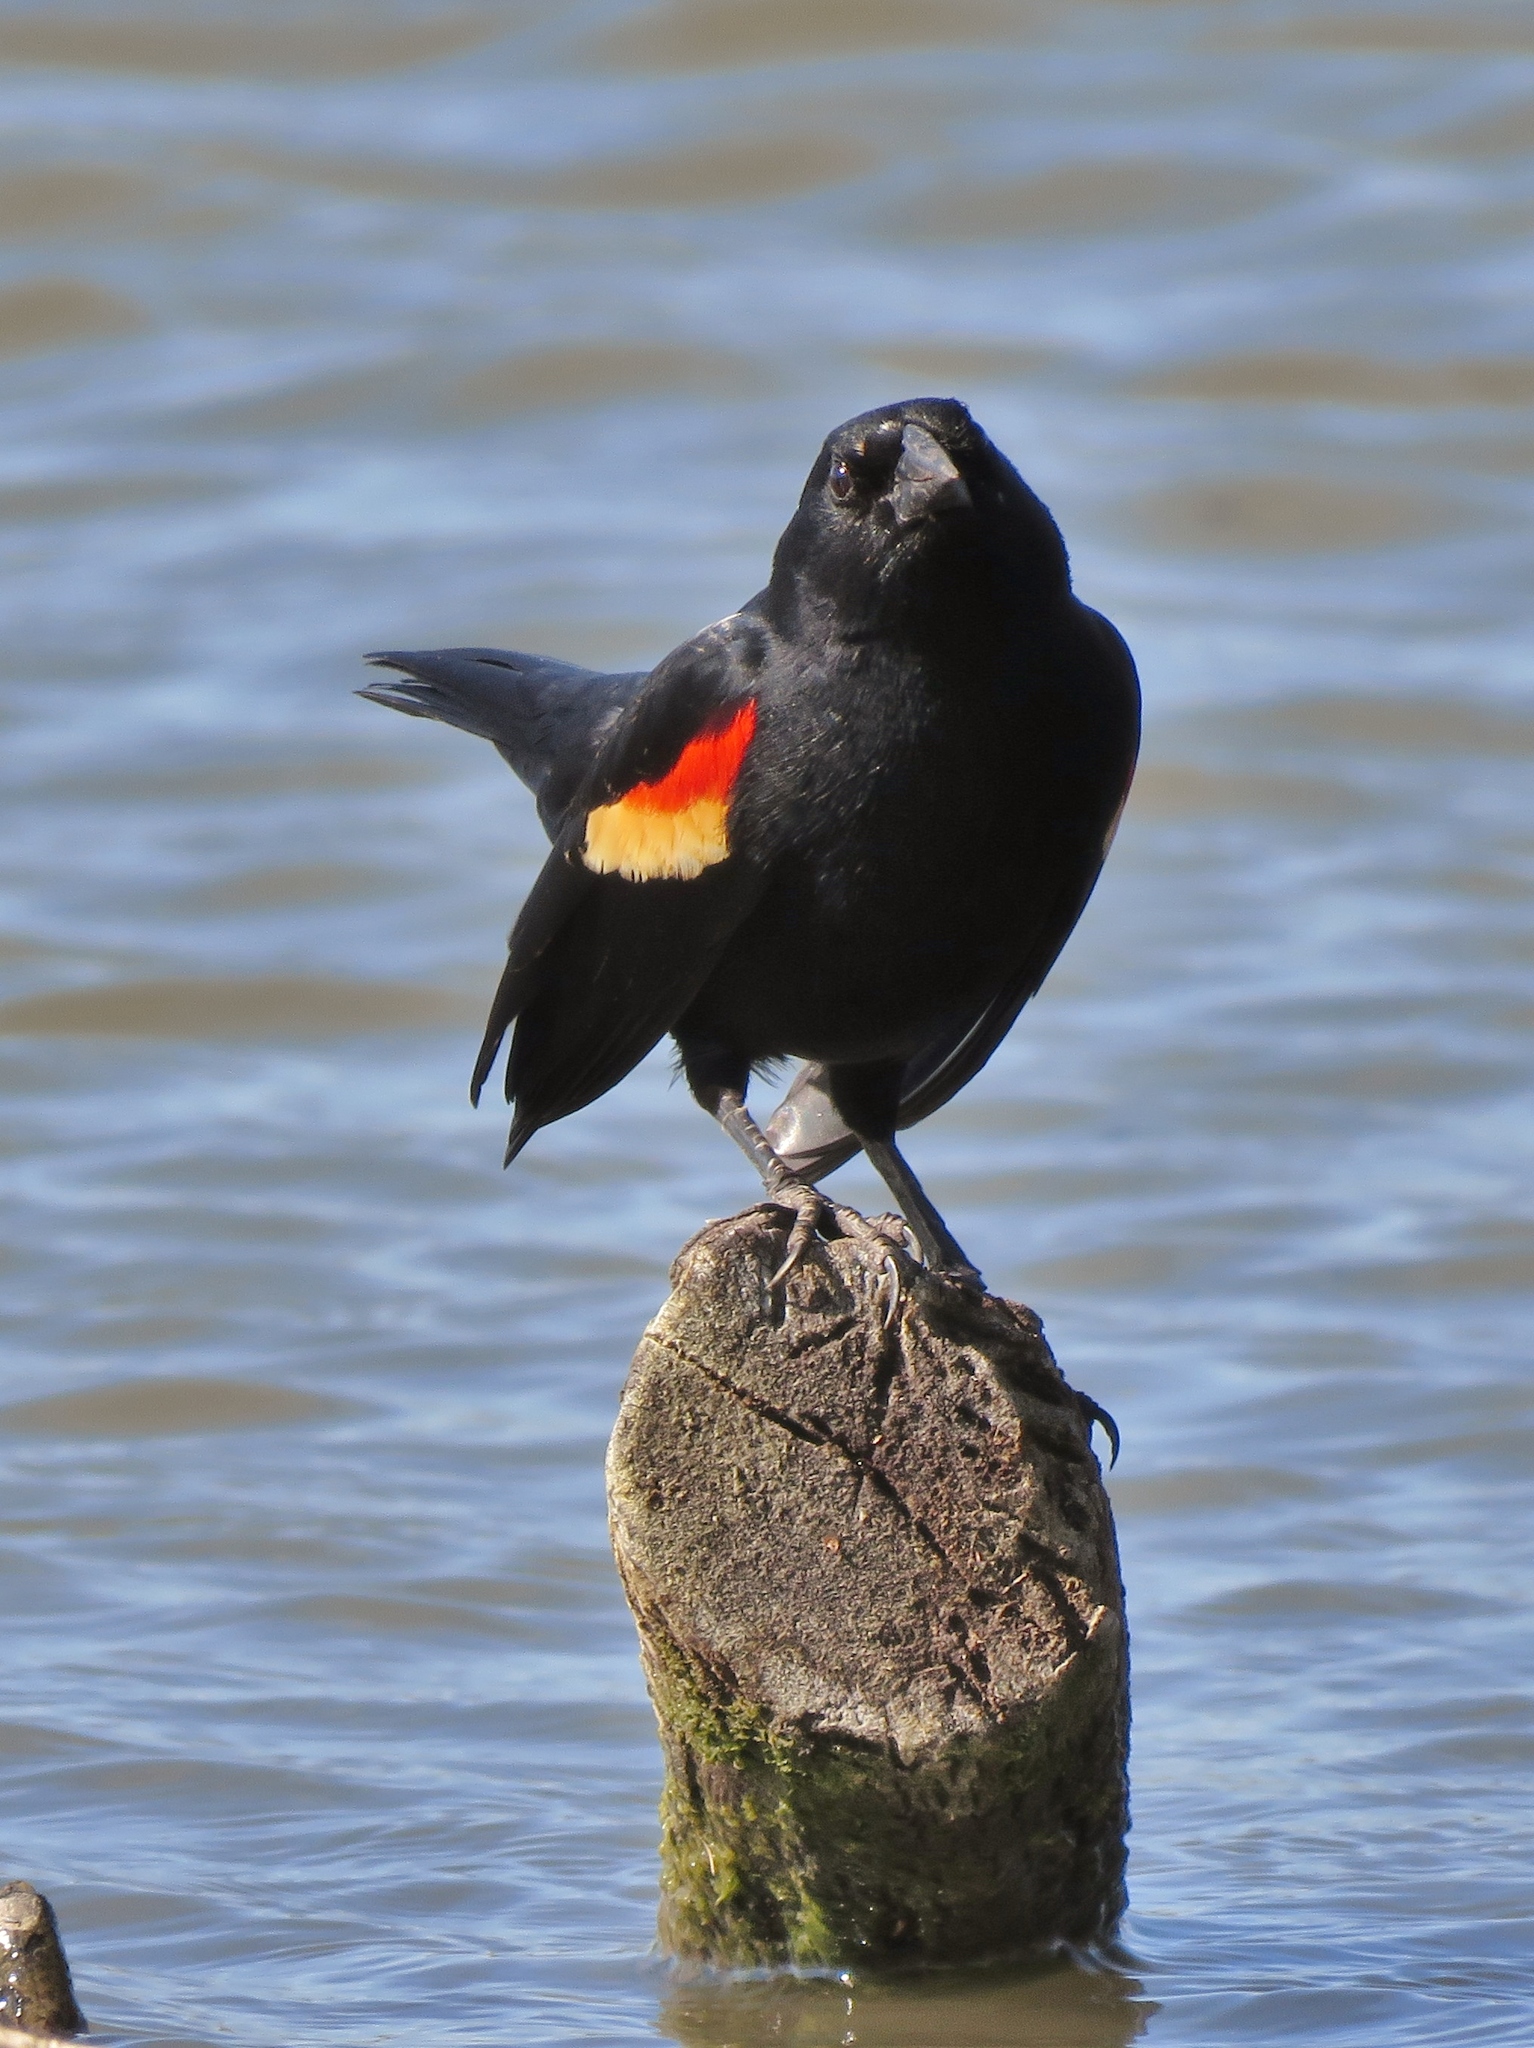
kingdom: Animalia
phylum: Chordata
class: Aves
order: Passeriformes
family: Icteridae
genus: Agelaius
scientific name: Agelaius phoeniceus
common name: Red-winged blackbird
